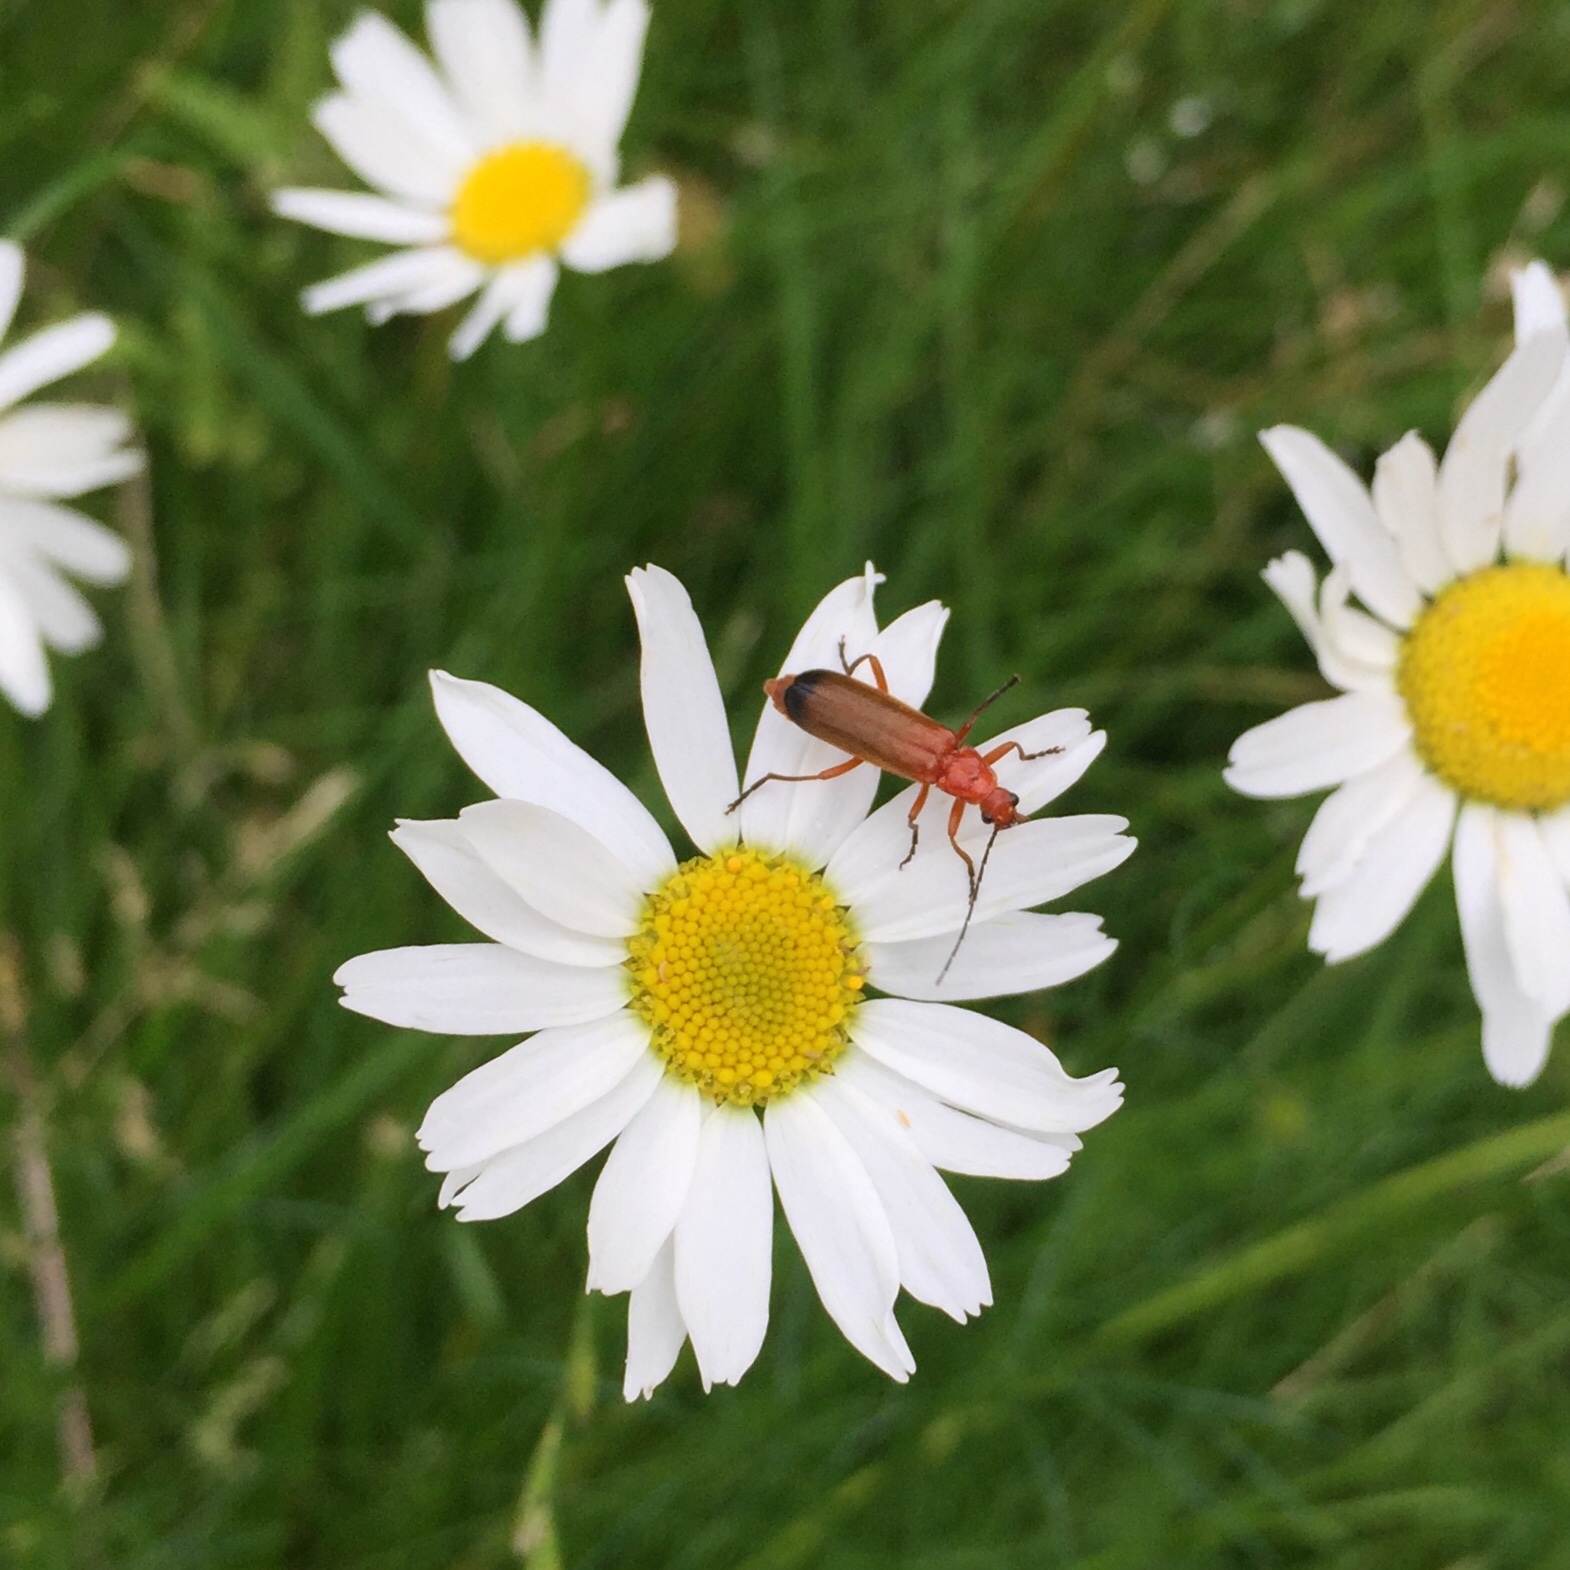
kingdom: Animalia
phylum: Arthropoda
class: Insecta
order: Coleoptera
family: Cantharidae
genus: Rhagonycha
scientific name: Rhagonycha fulva
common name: Common red soldier beetle
